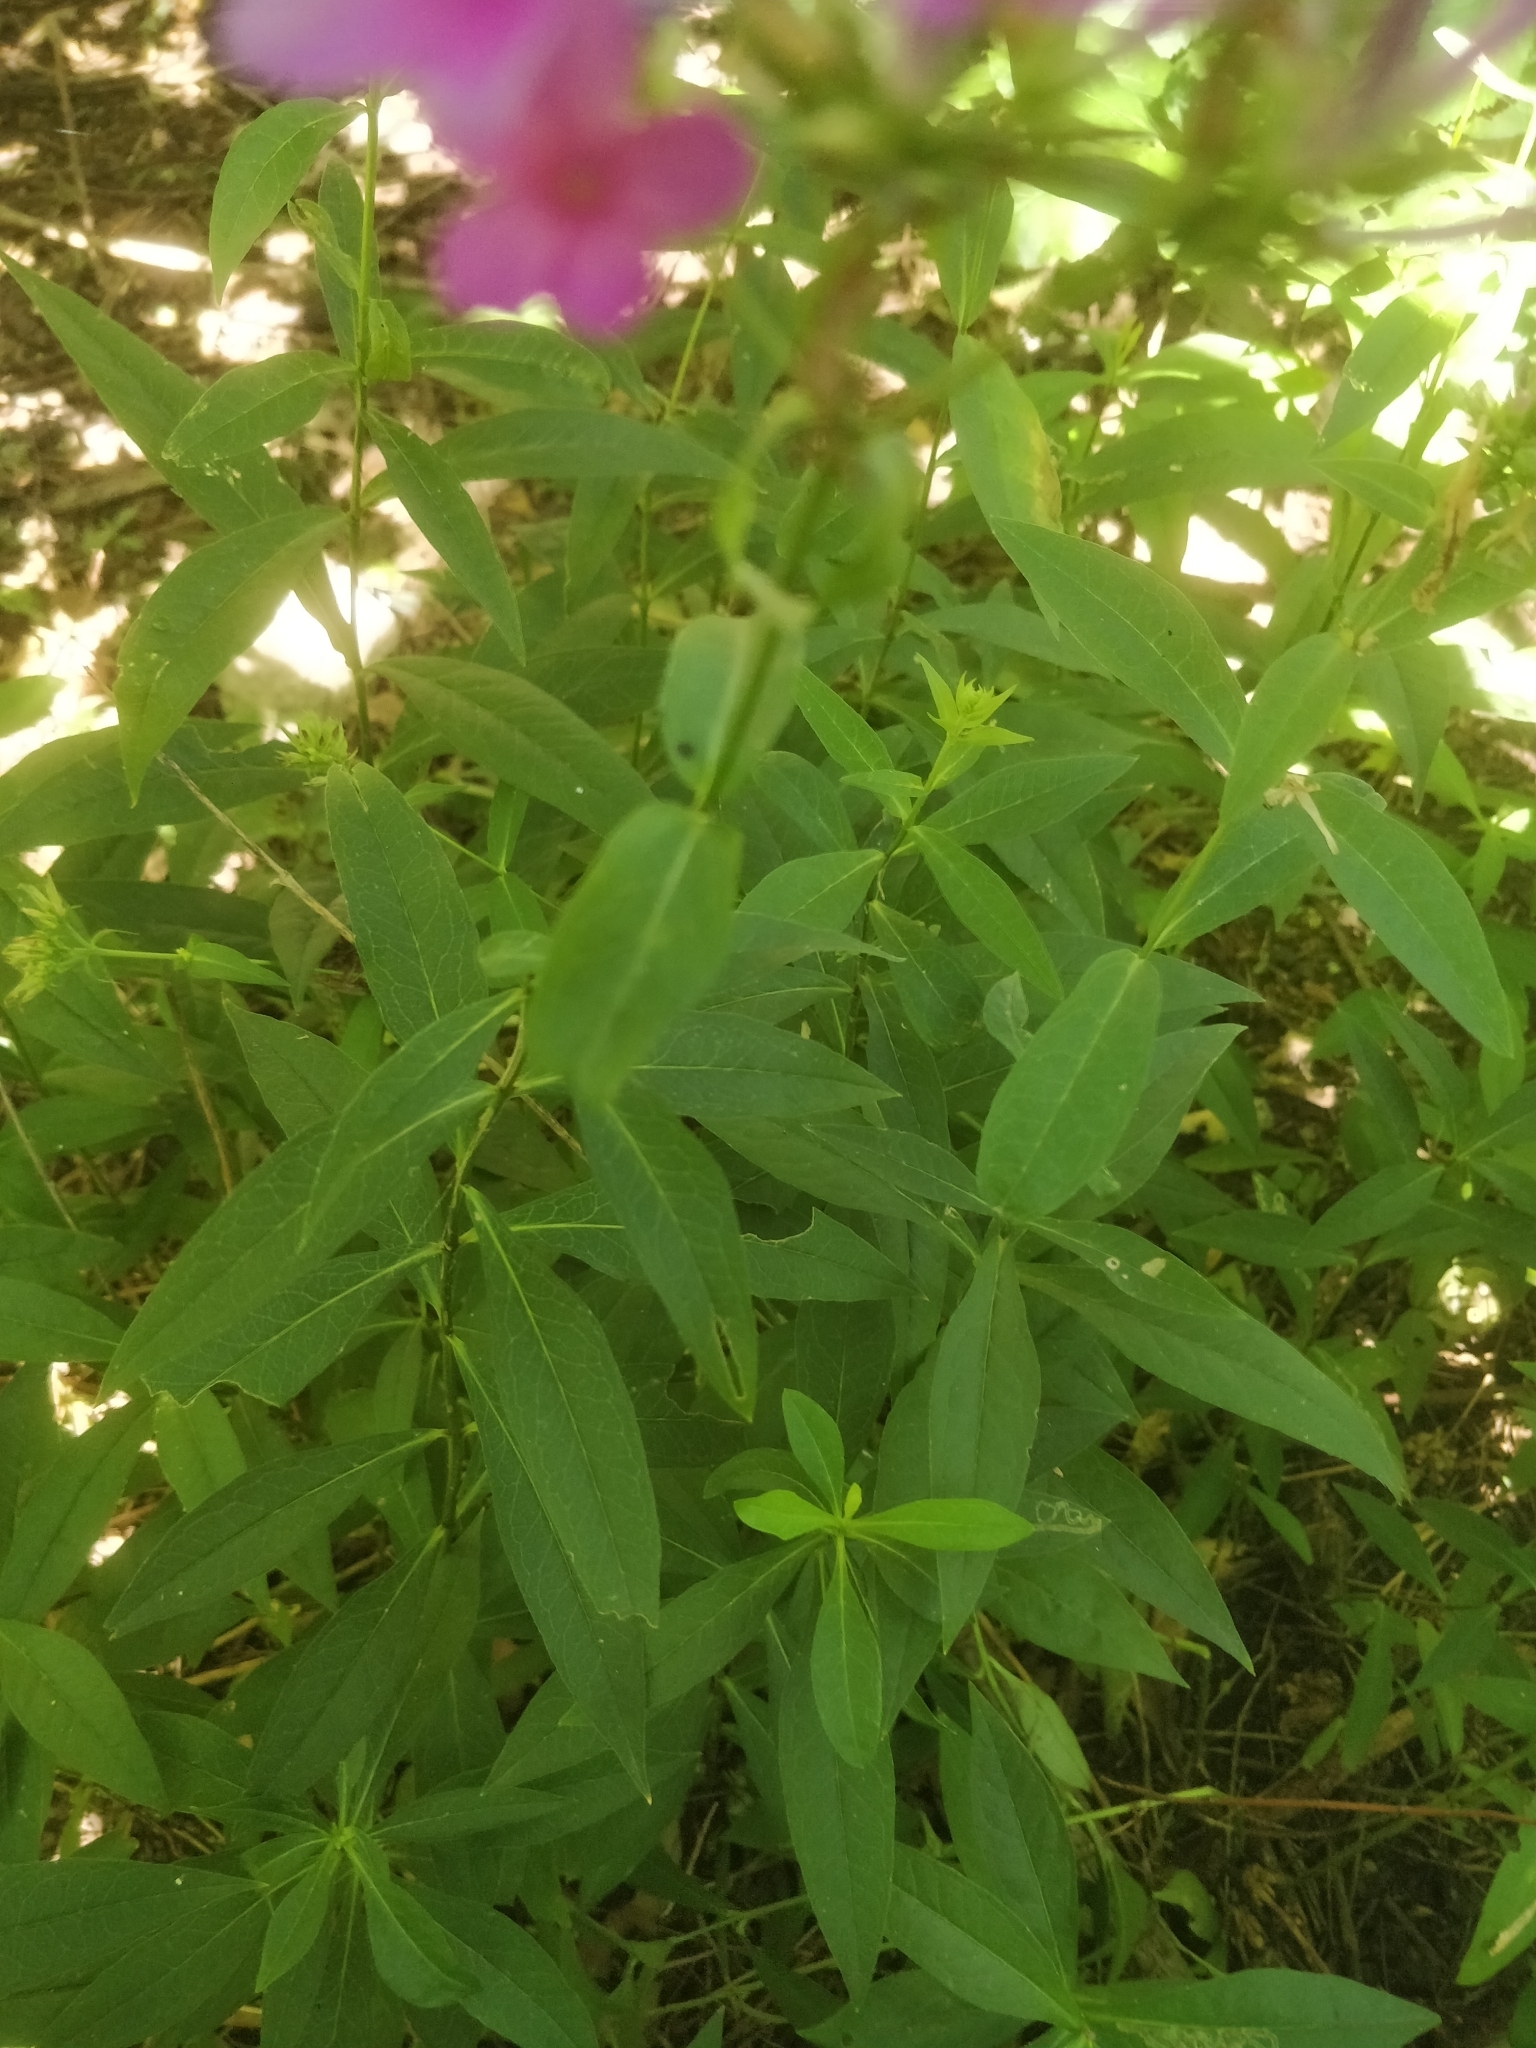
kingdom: Plantae
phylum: Tracheophyta
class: Magnoliopsida
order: Ericales
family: Polemoniaceae
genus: Phlox
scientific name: Phlox paniculata
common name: Fall phlox
